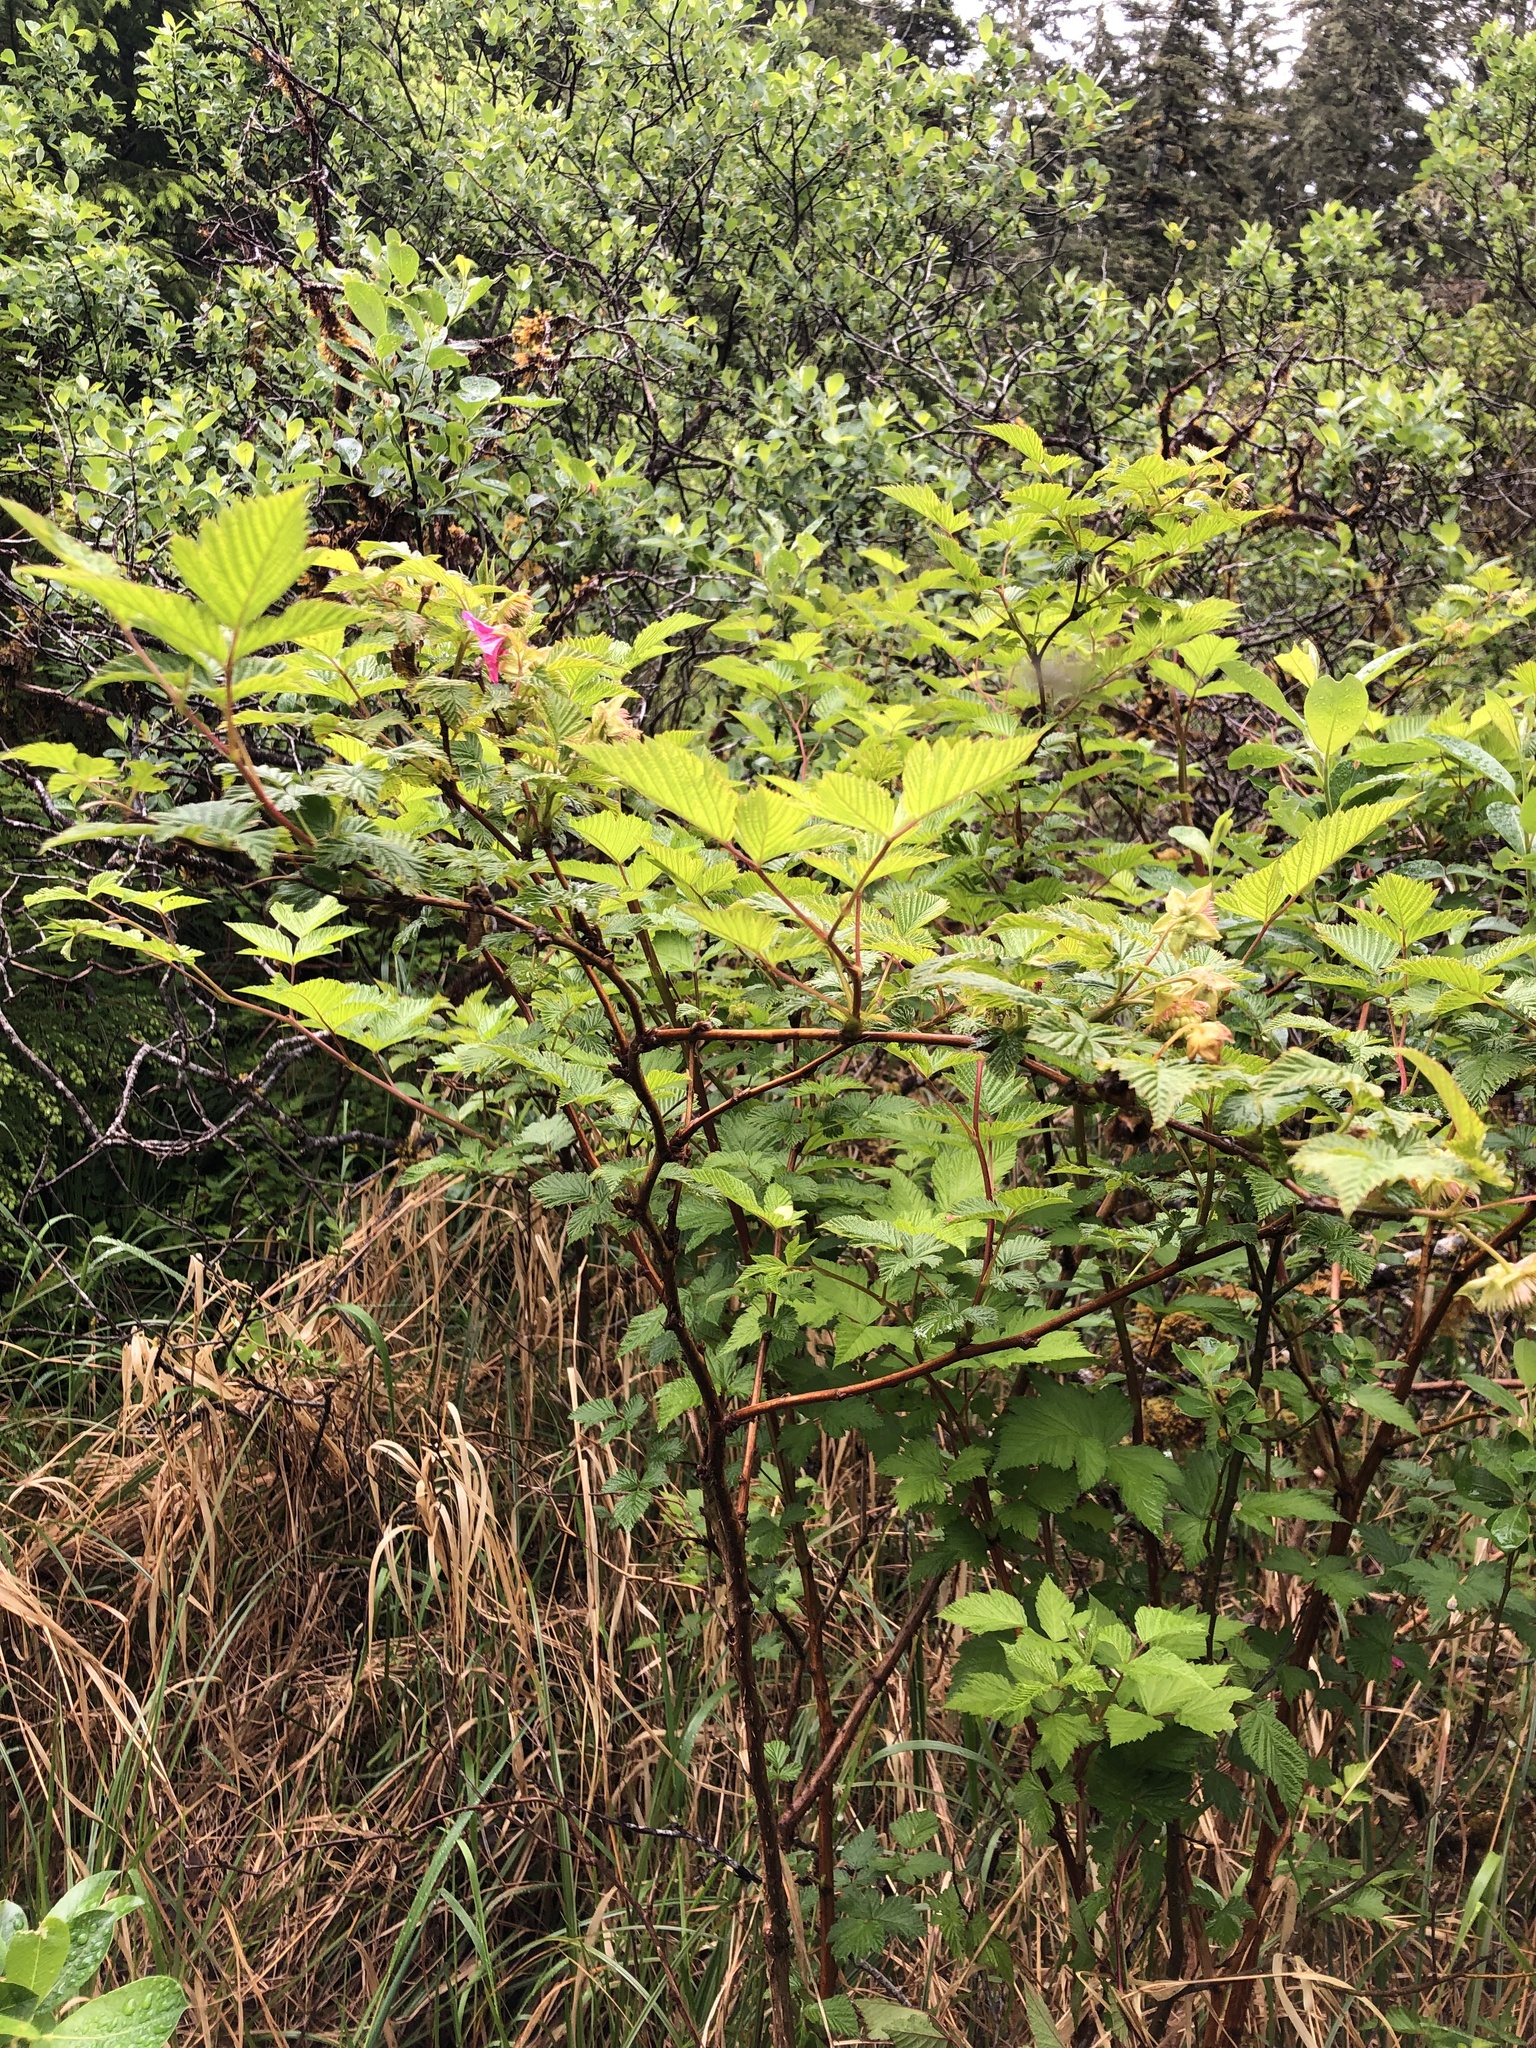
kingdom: Plantae
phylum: Tracheophyta
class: Magnoliopsida
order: Rosales
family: Rosaceae
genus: Rubus
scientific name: Rubus spectabilis
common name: Salmonberry
